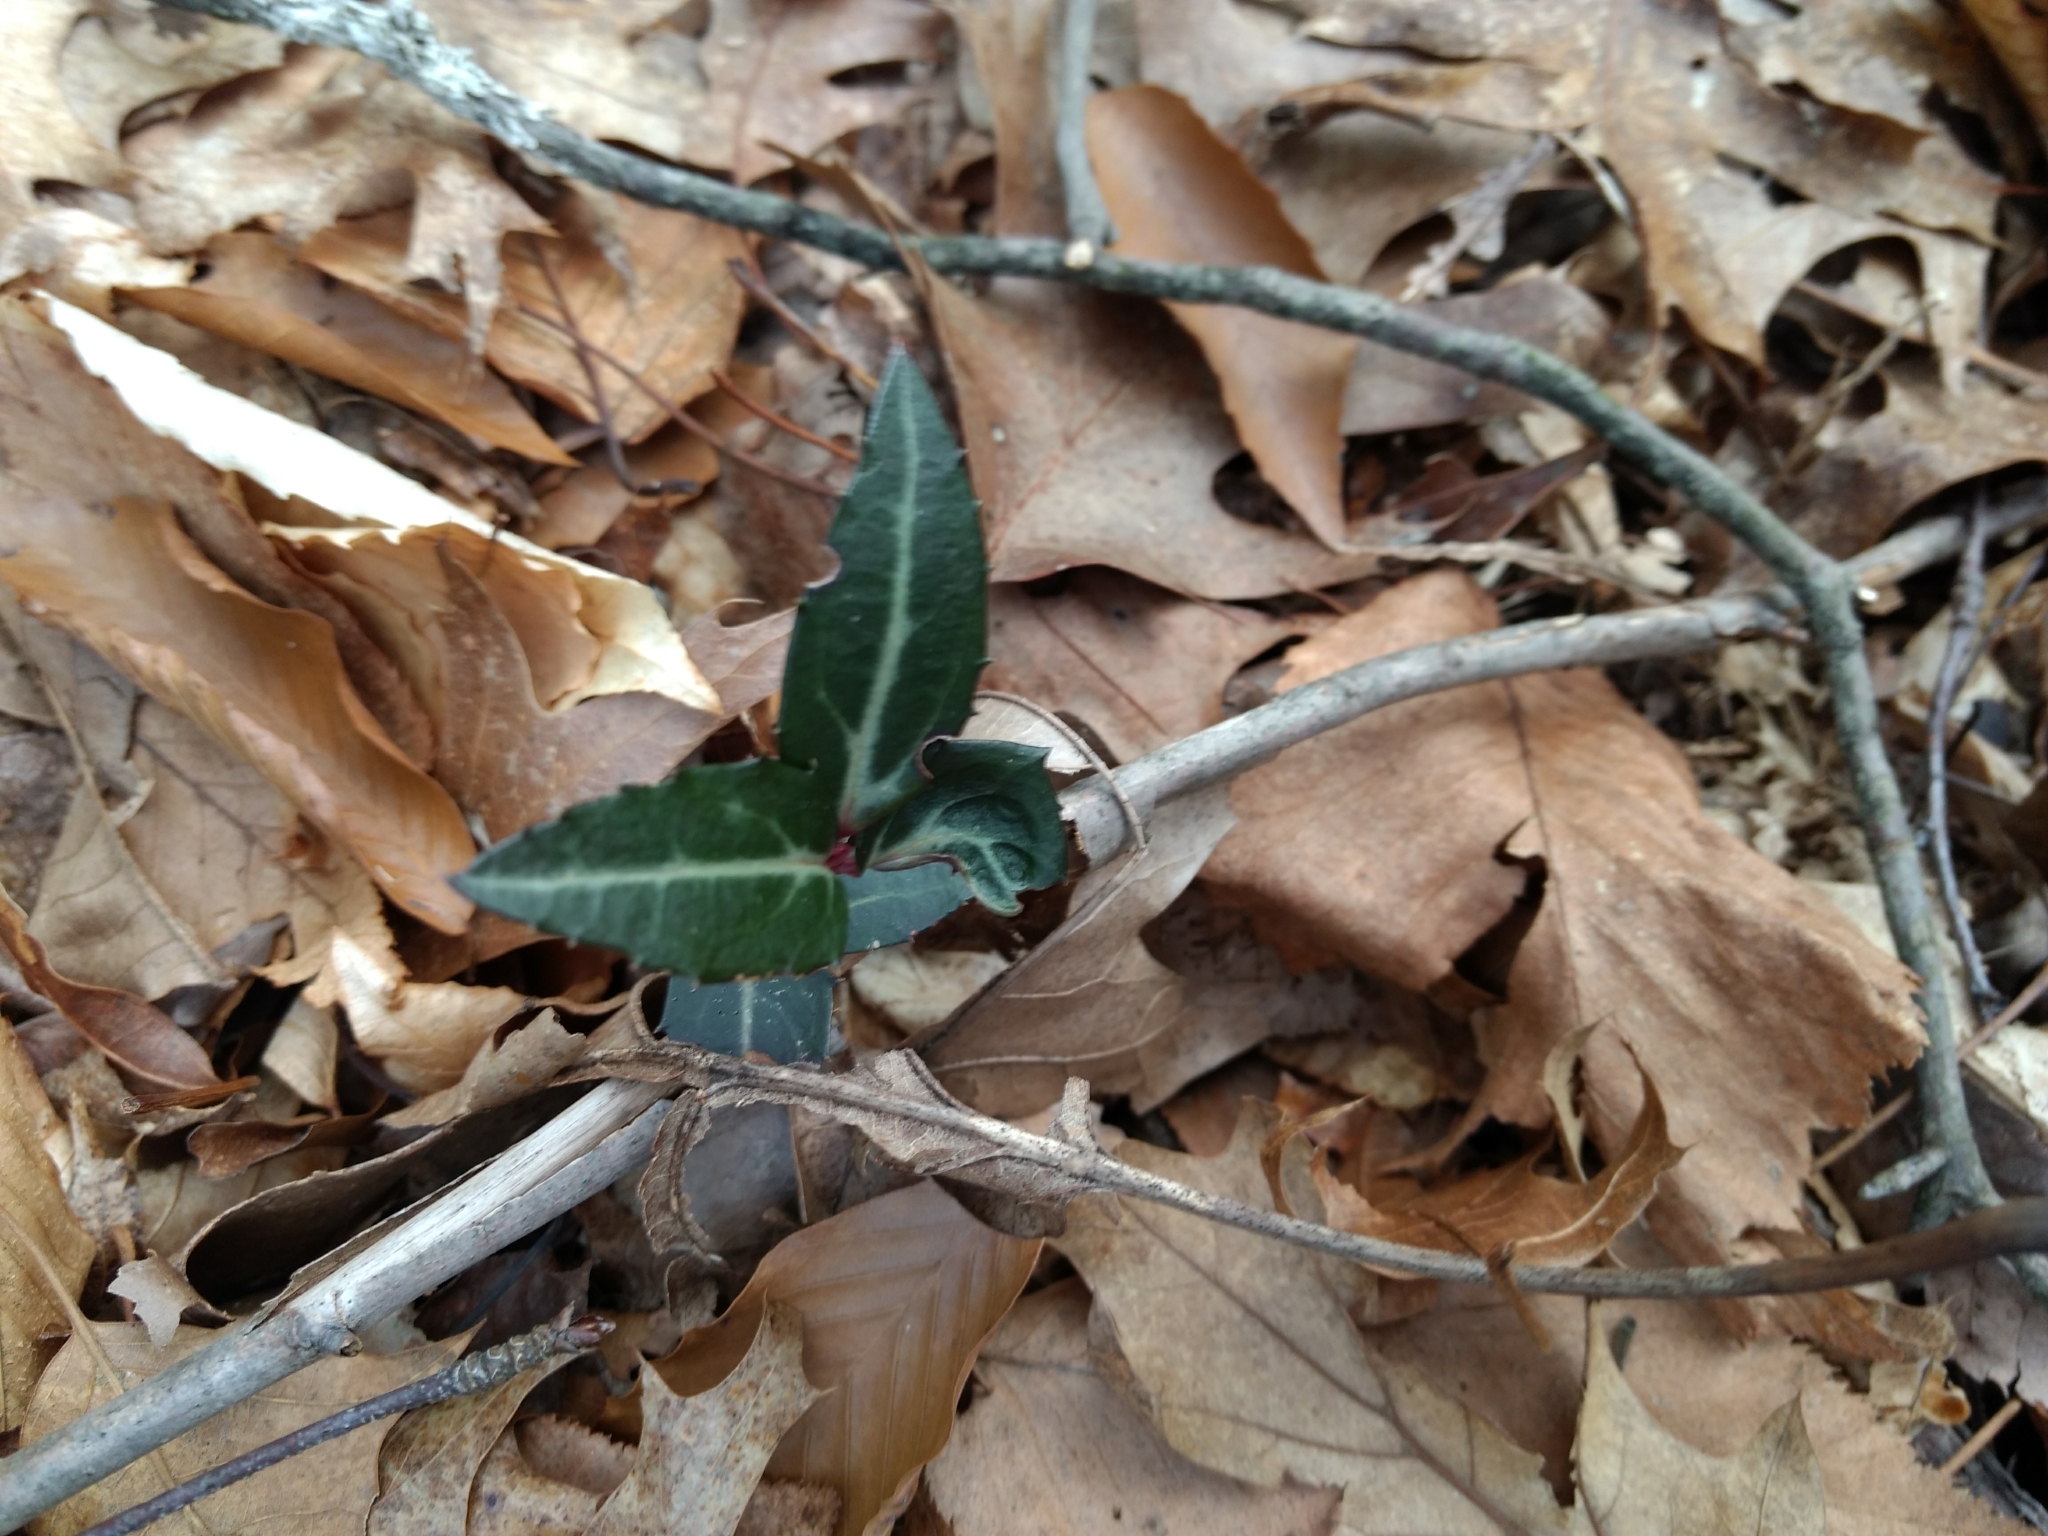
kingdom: Plantae
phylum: Tracheophyta
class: Magnoliopsida
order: Ericales
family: Ericaceae
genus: Chimaphila
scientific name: Chimaphila maculata
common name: Spotted pipsissewa
